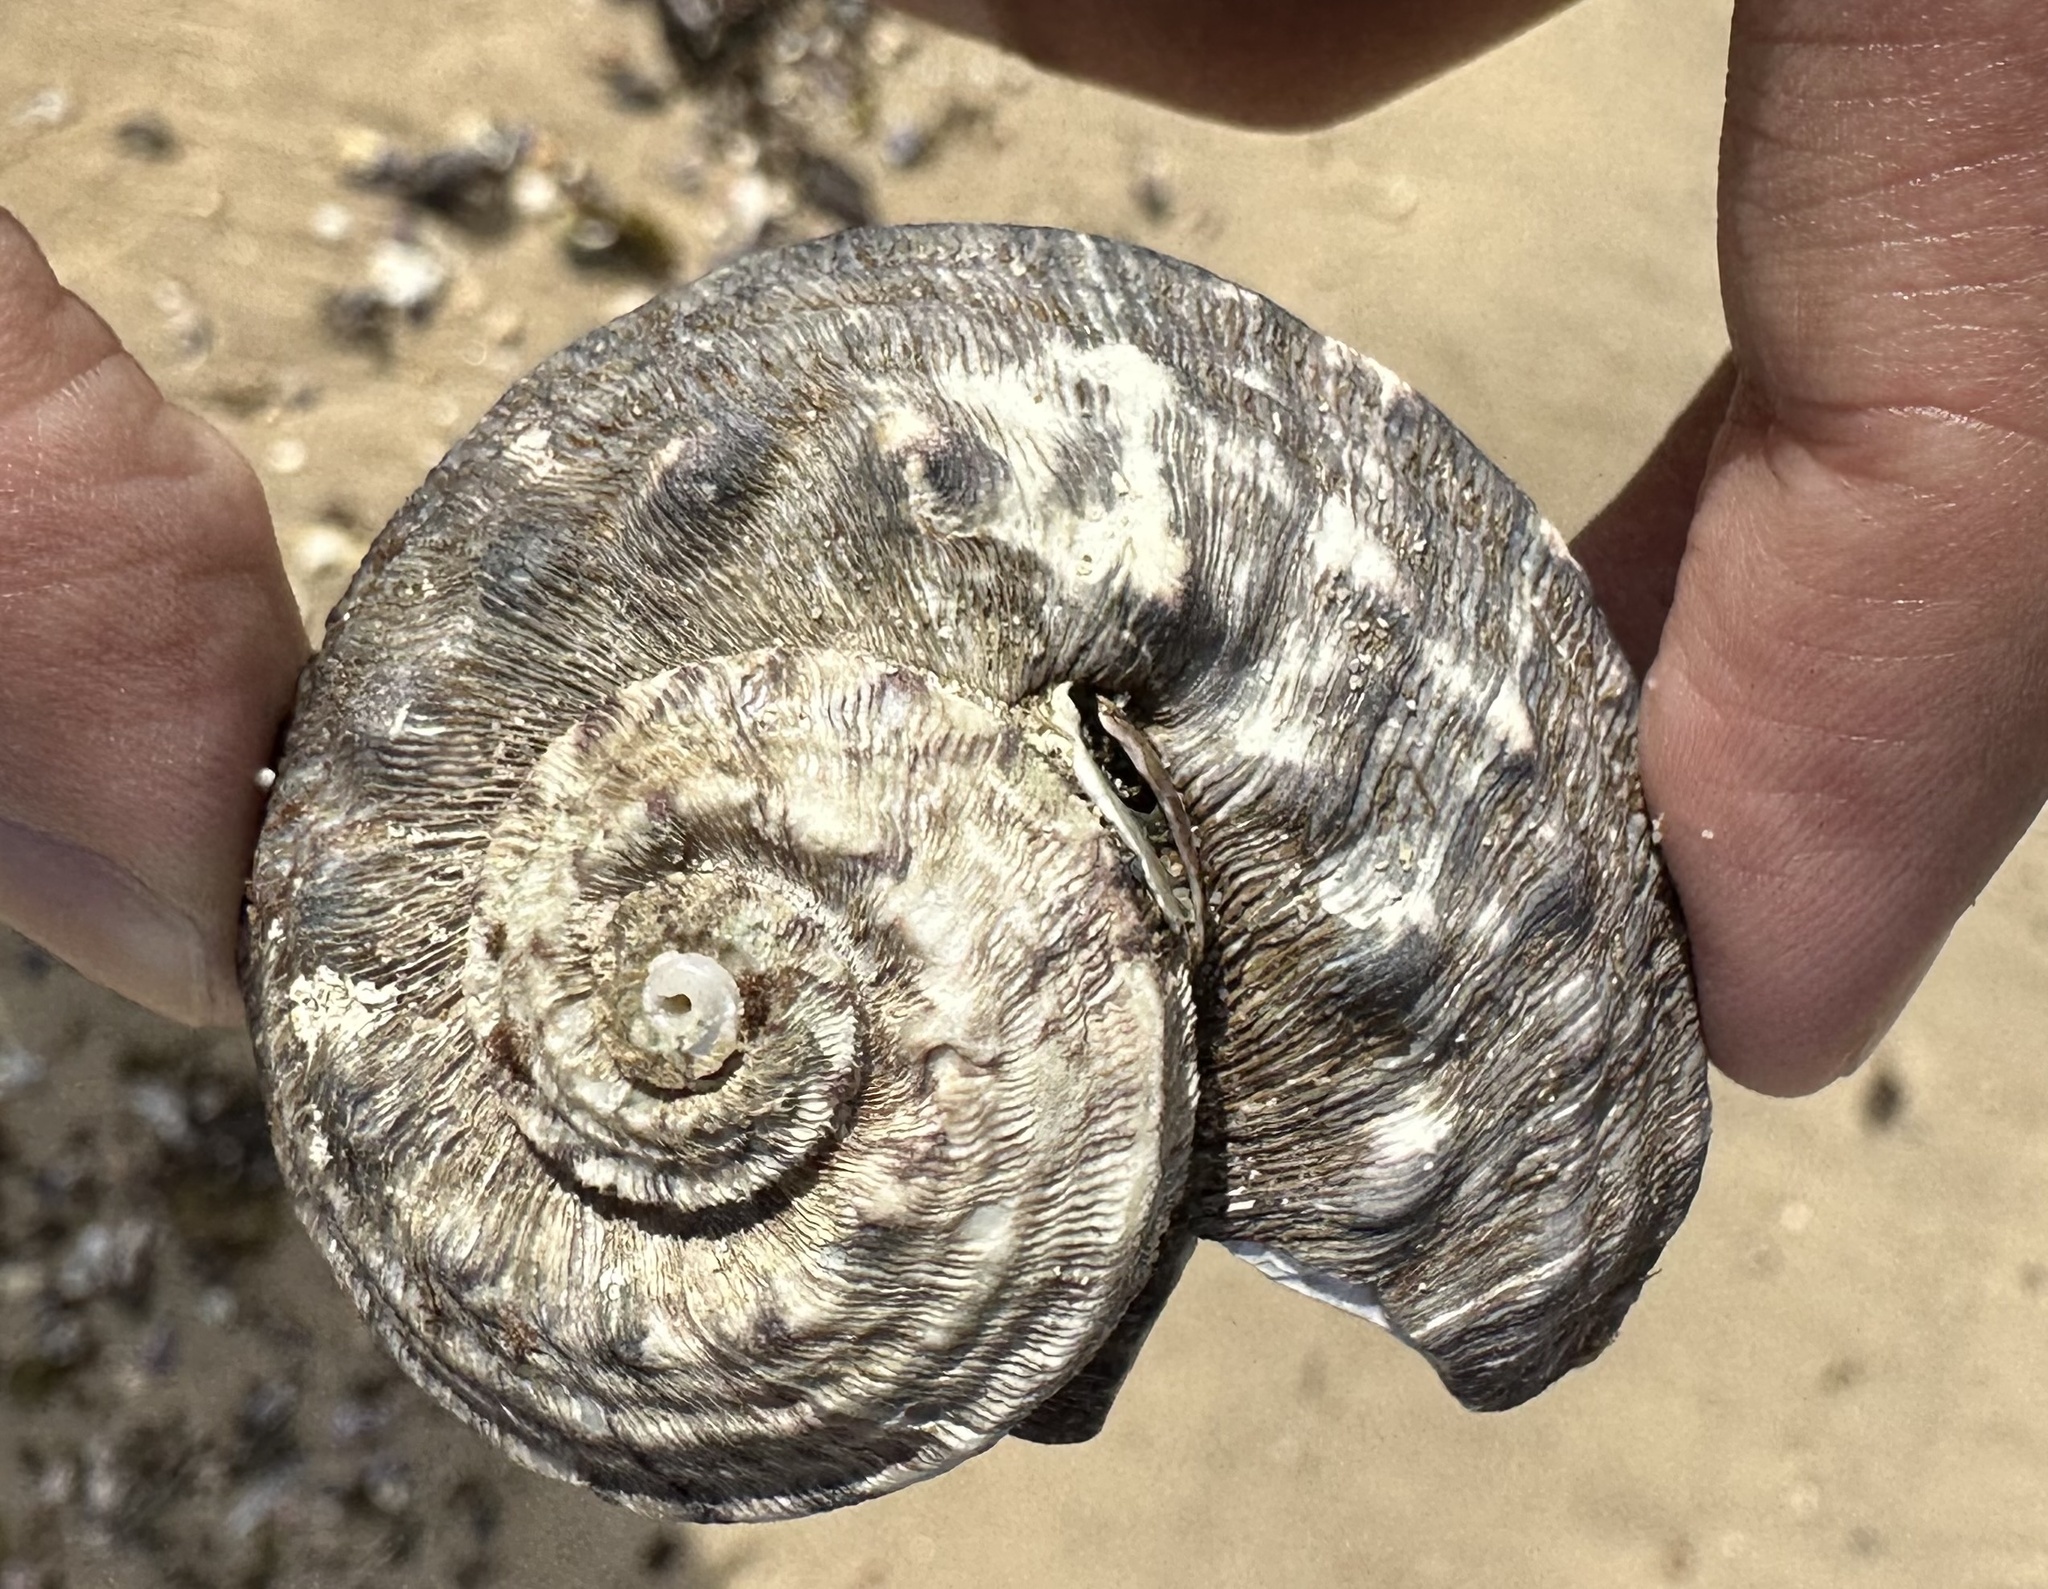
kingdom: Animalia
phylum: Mollusca
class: Gastropoda
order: Trochida
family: Turbinidae
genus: Lunella
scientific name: Lunella torquata
